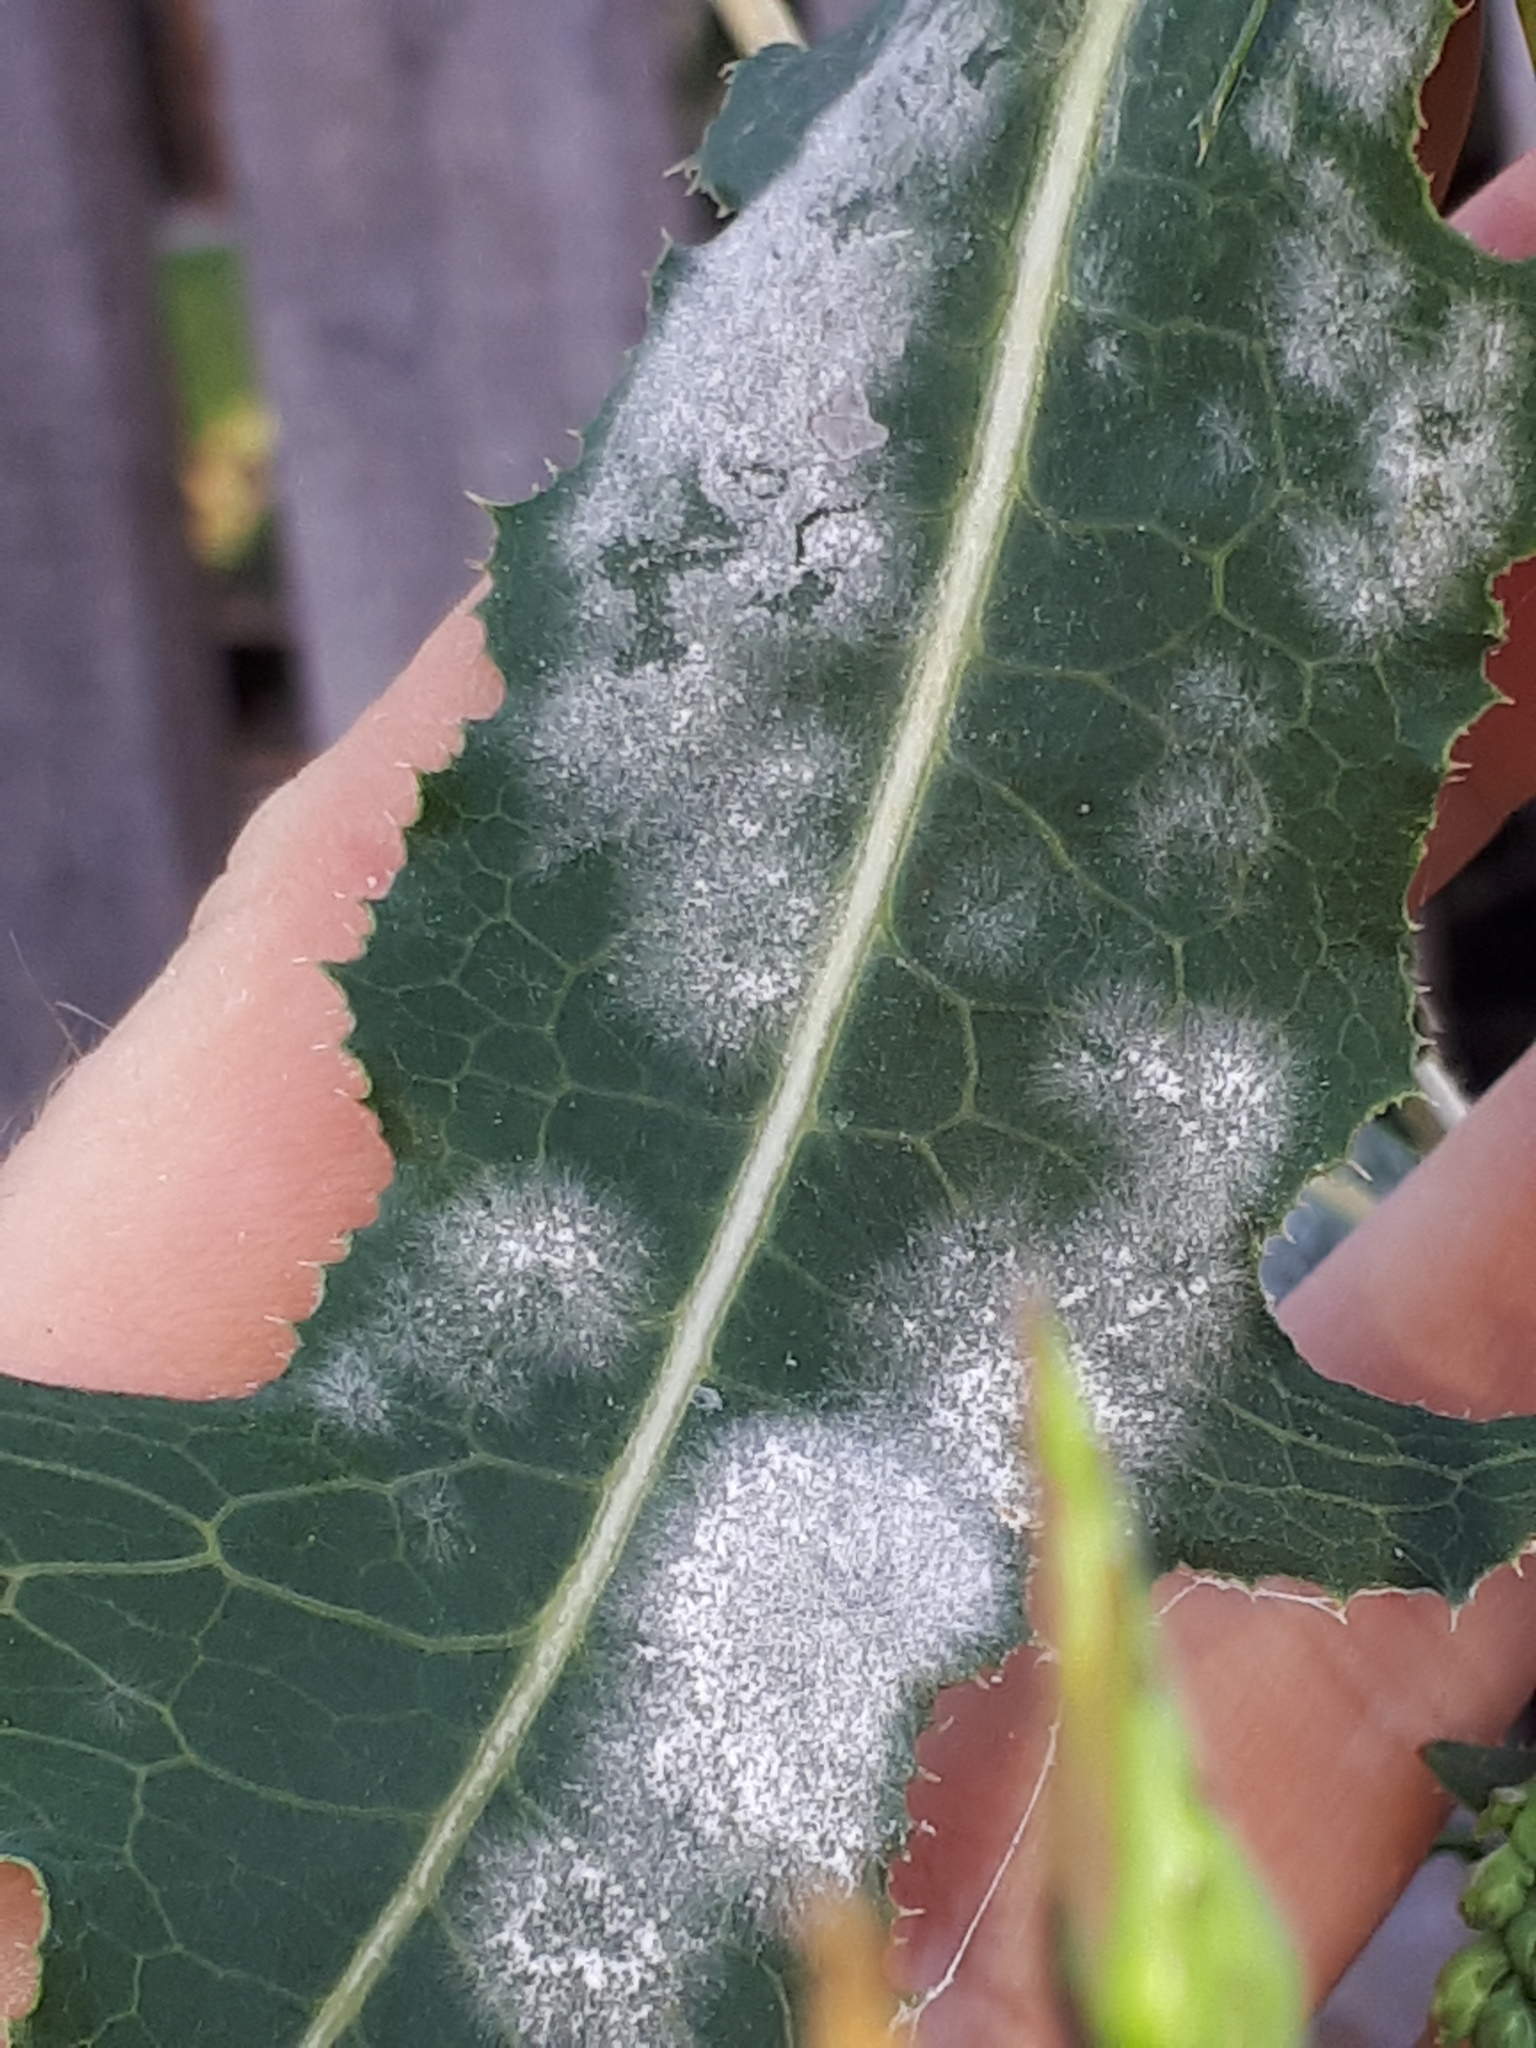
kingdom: Fungi
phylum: Ascomycota
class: Leotiomycetes
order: Helotiales
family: Erysiphaceae
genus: Golovinomyces
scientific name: Golovinomyces bolayi
